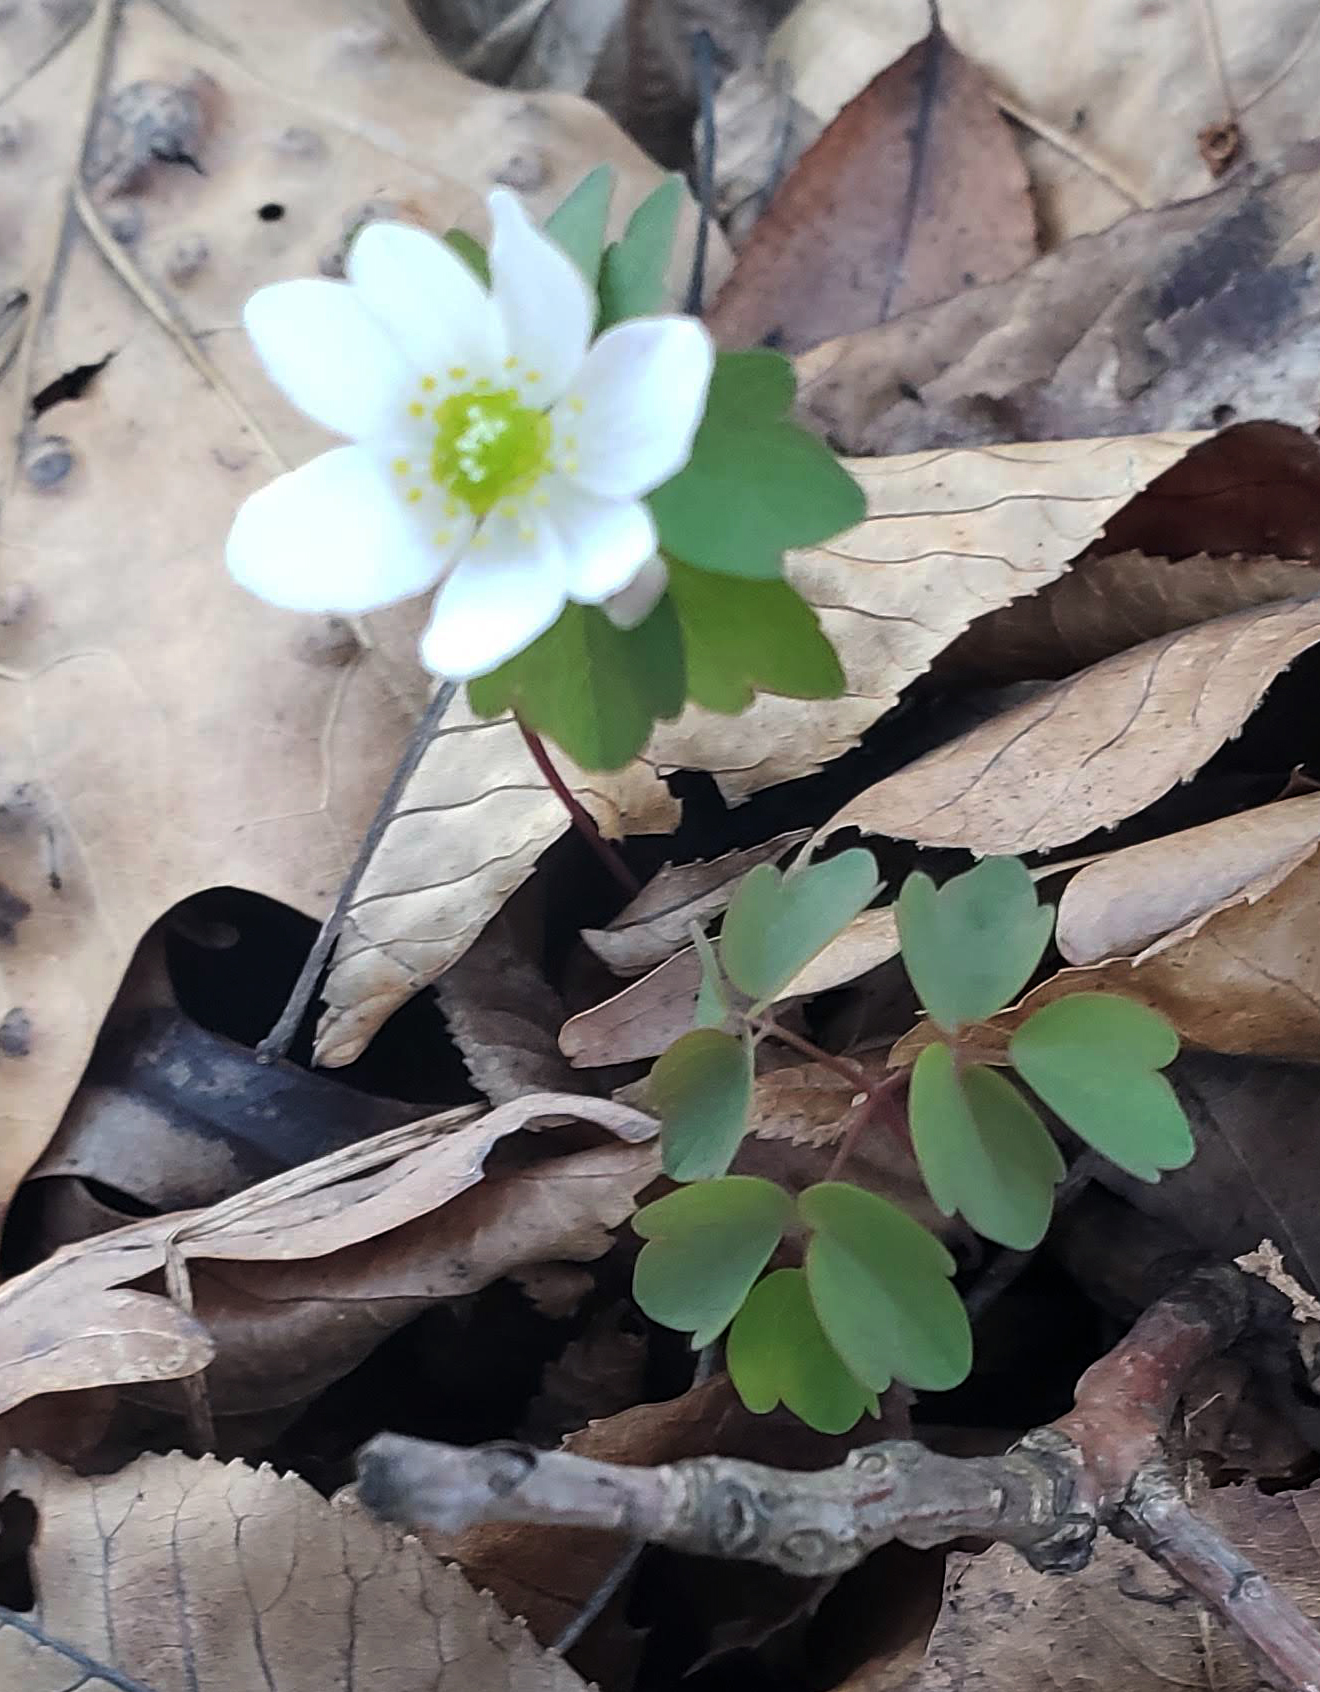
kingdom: Plantae
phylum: Tracheophyta
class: Magnoliopsida
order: Ranunculales
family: Ranunculaceae
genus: Thalictrum
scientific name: Thalictrum thalictroides
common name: Rue-anemone
